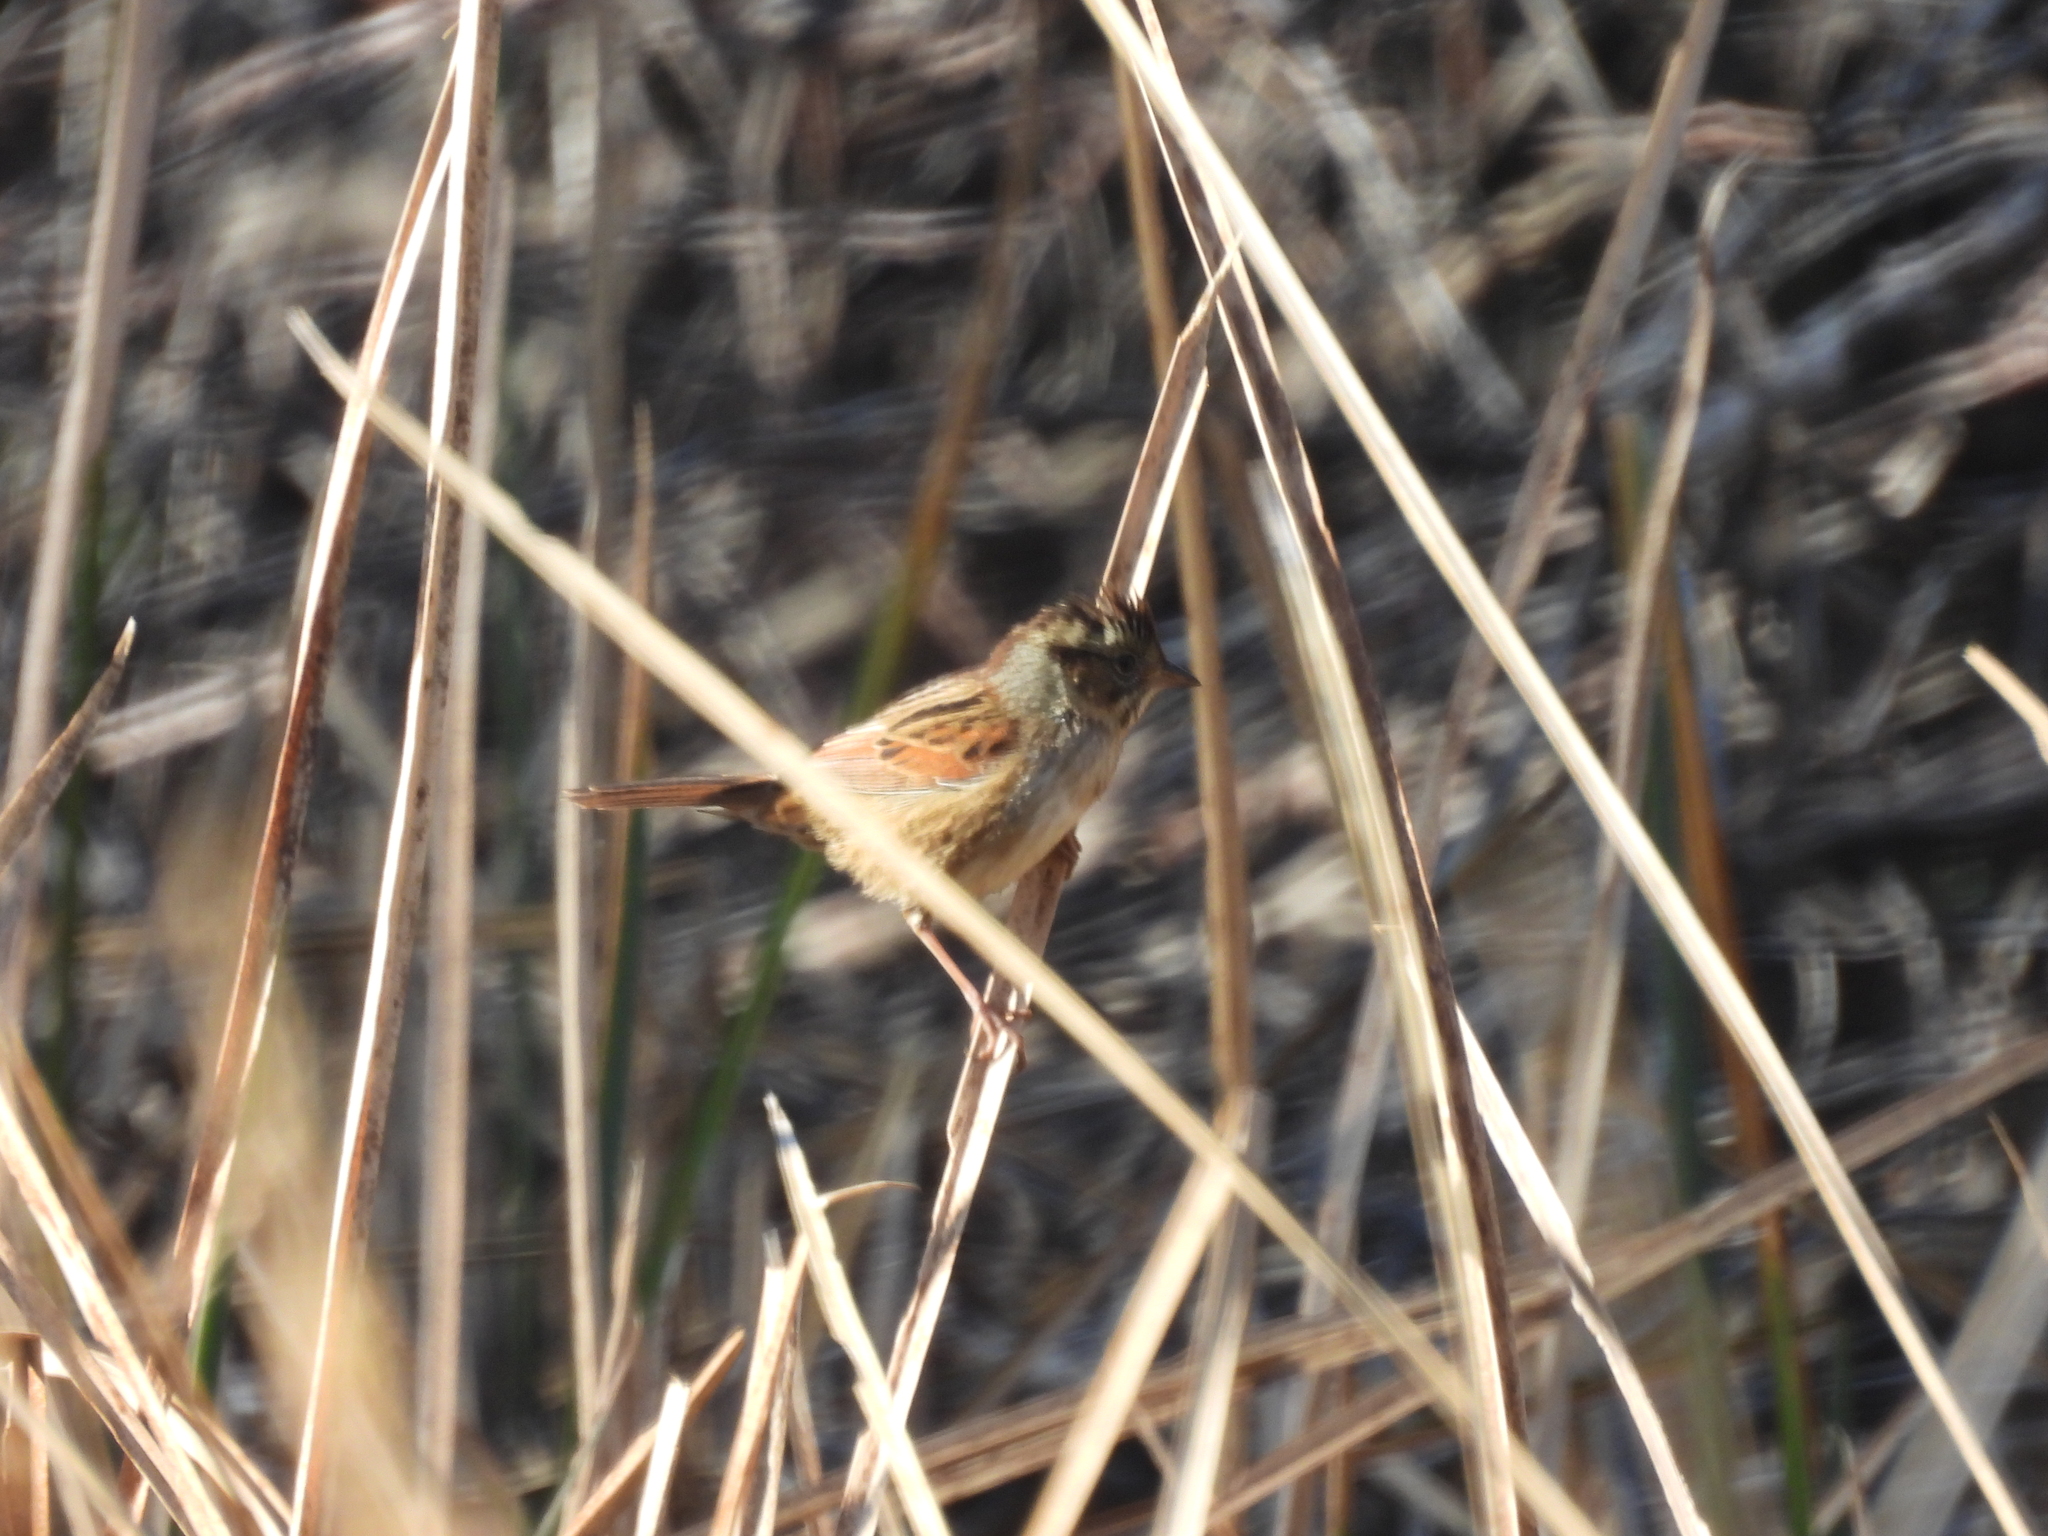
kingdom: Animalia
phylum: Chordata
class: Aves
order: Passeriformes
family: Passerellidae
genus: Melospiza
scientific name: Melospiza georgiana
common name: Swamp sparrow
